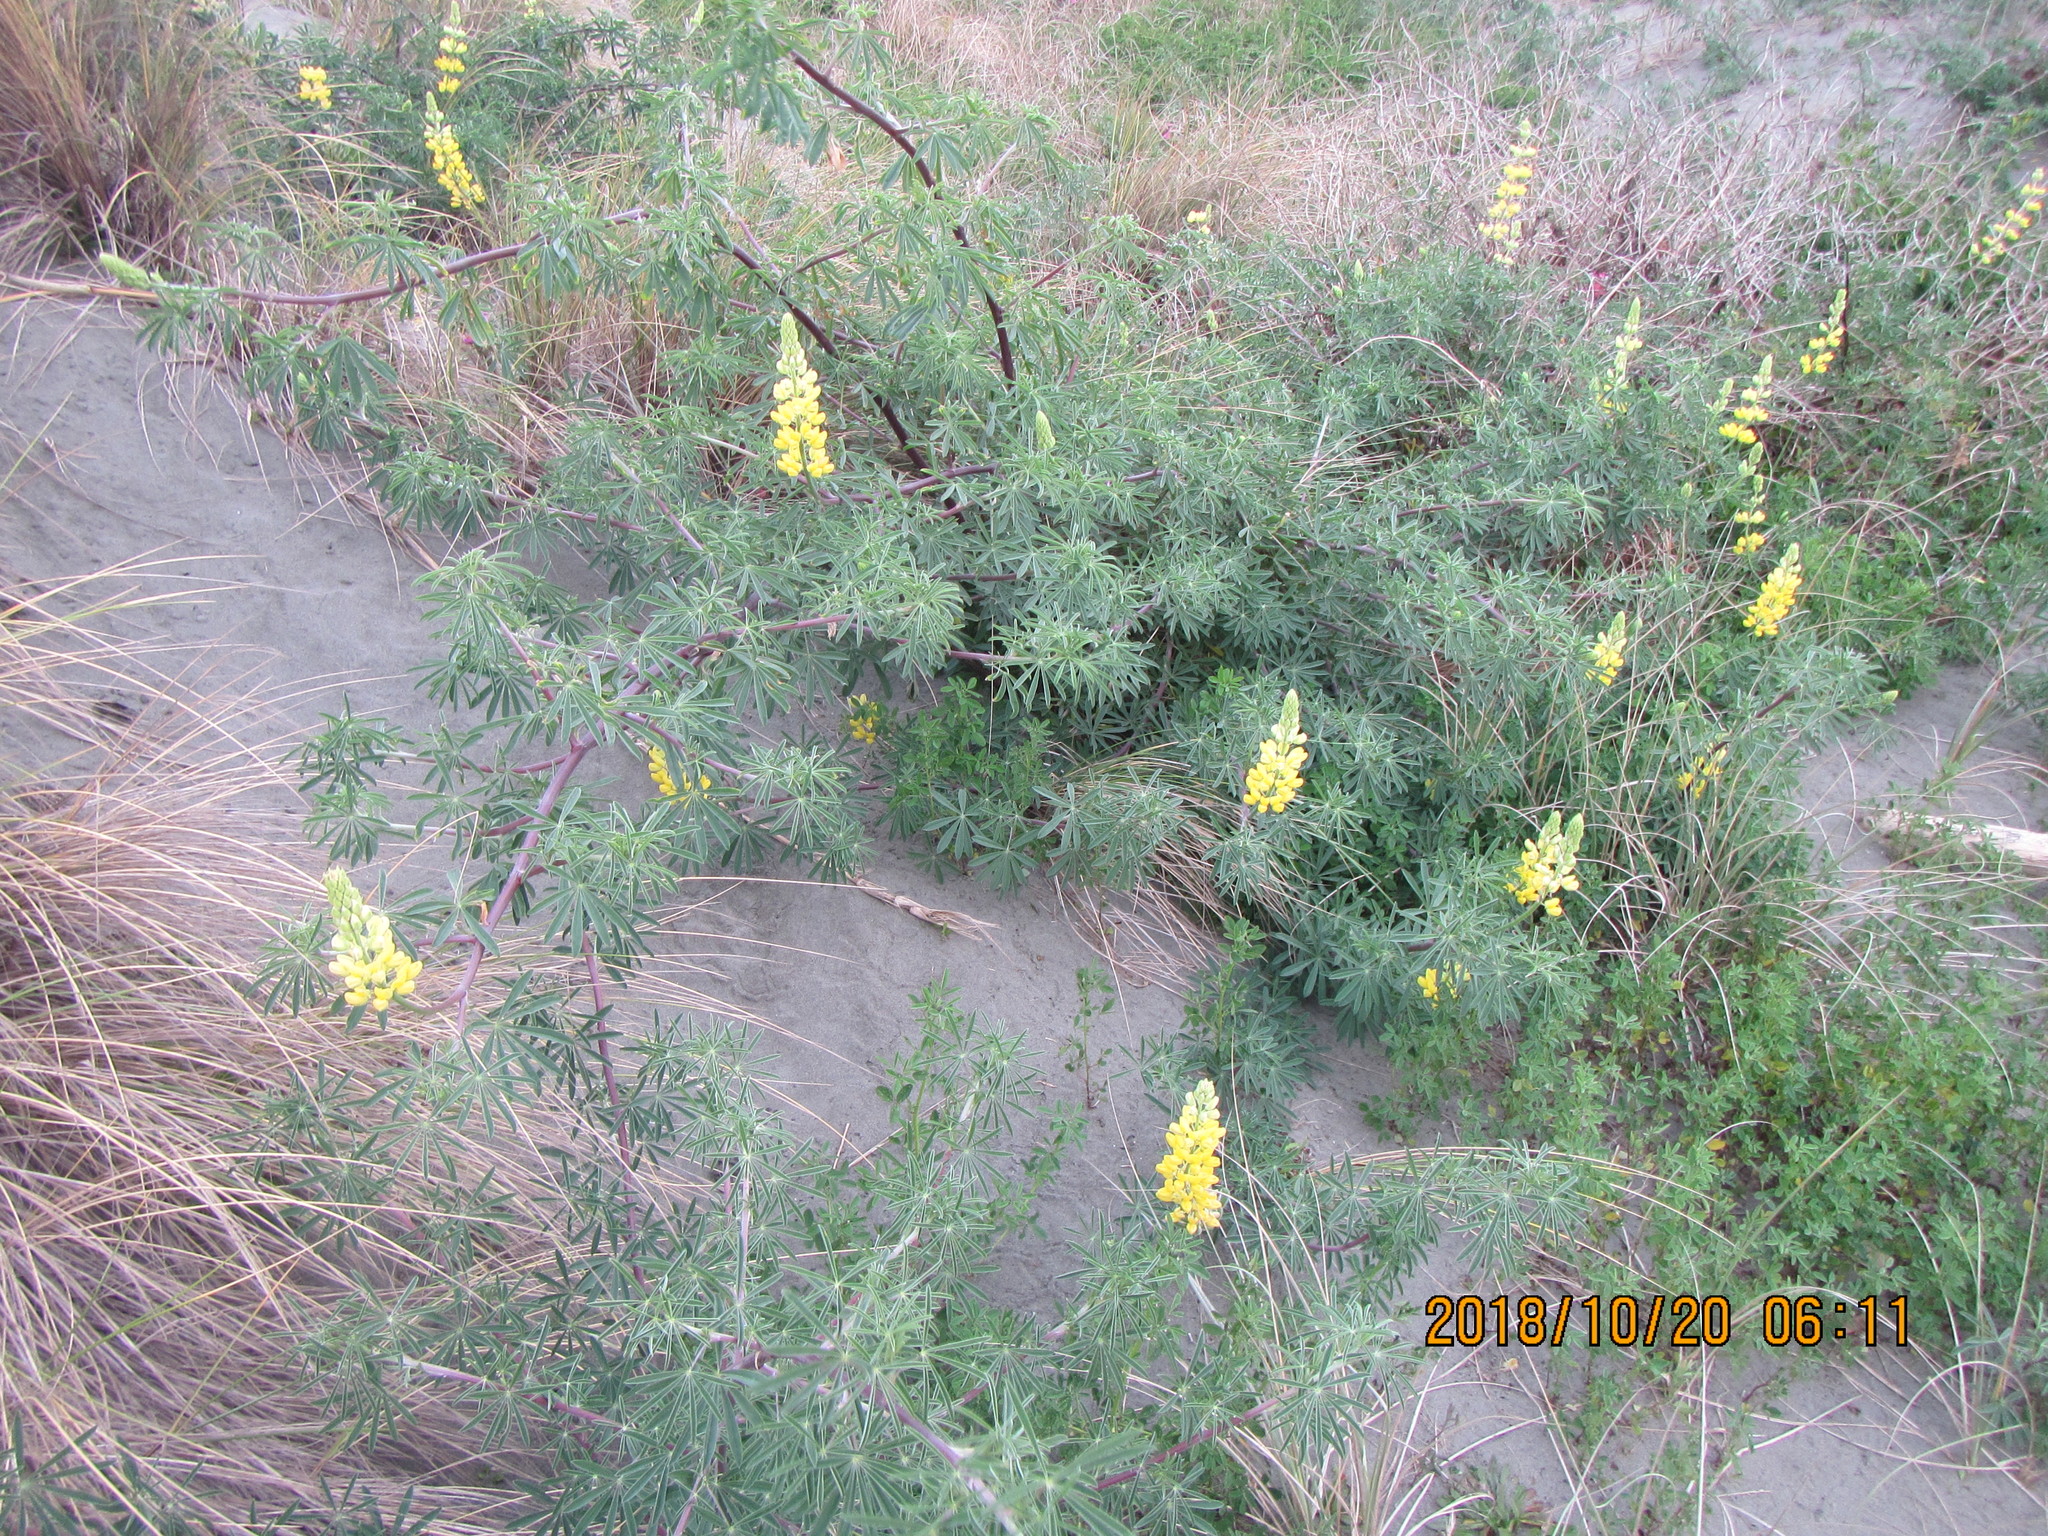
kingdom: Plantae
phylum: Tracheophyta
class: Magnoliopsida
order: Fabales
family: Fabaceae
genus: Lupinus
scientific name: Lupinus arboreus
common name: Yellow bush lupine
